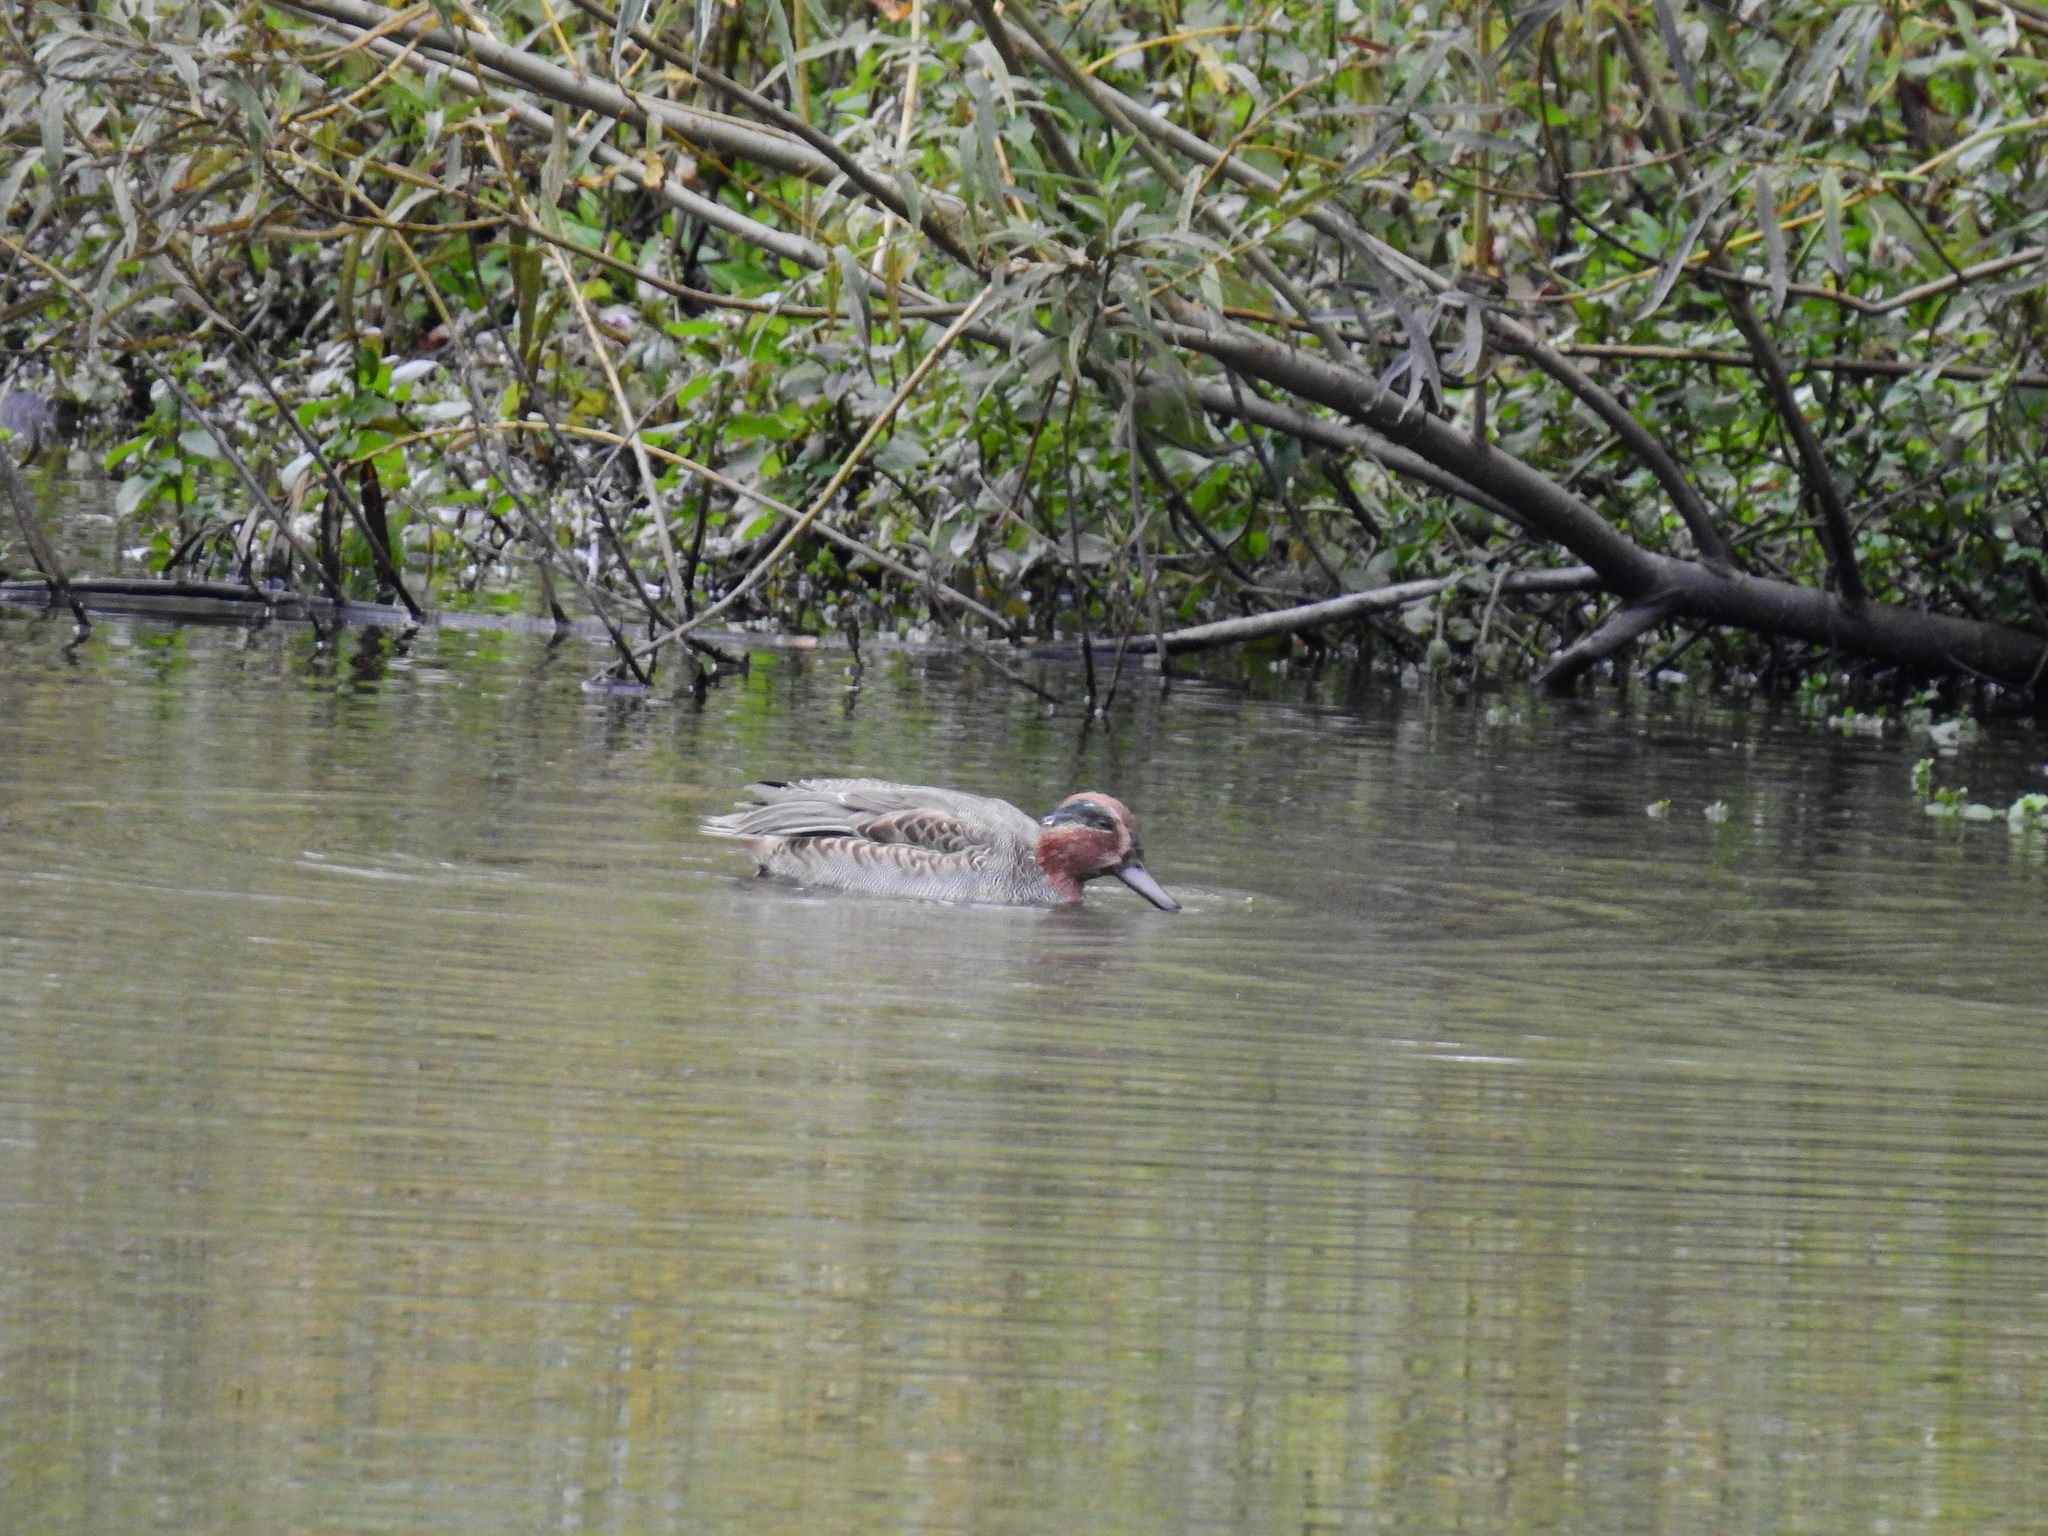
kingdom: Animalia
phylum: Chordata
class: Aves
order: Anseriformes
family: Anatidae
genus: Anas
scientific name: Anas crecca
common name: Eurasian teal
